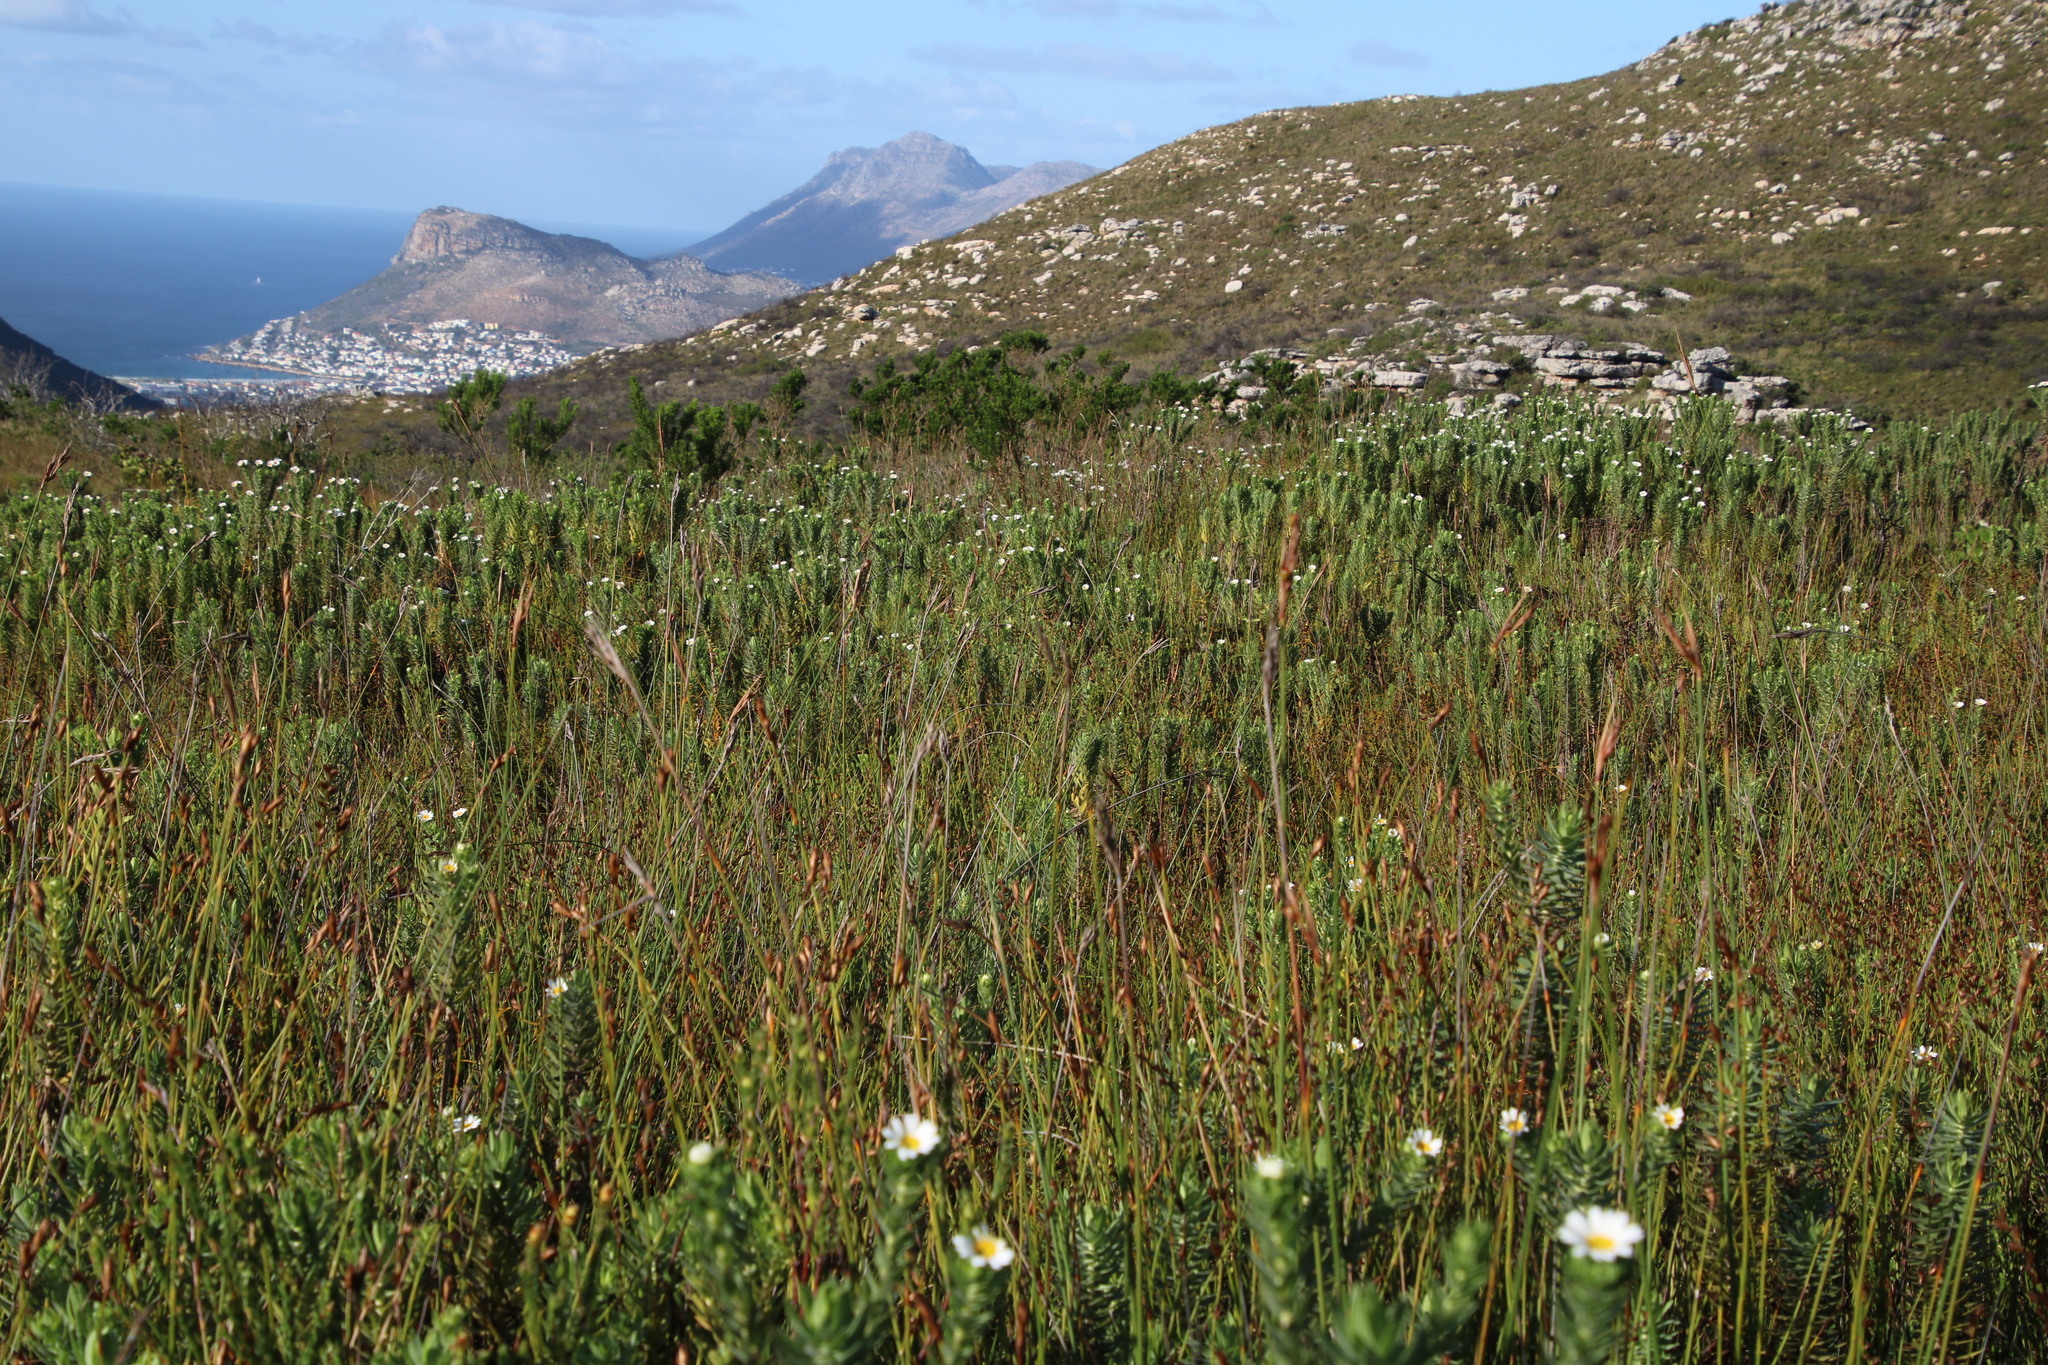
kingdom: Plantae
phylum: Tracheophyta
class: Magnoliopsida
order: Asterales
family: Asteraceae
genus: Osmitopsis
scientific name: Osmitopsis asteriscoides
